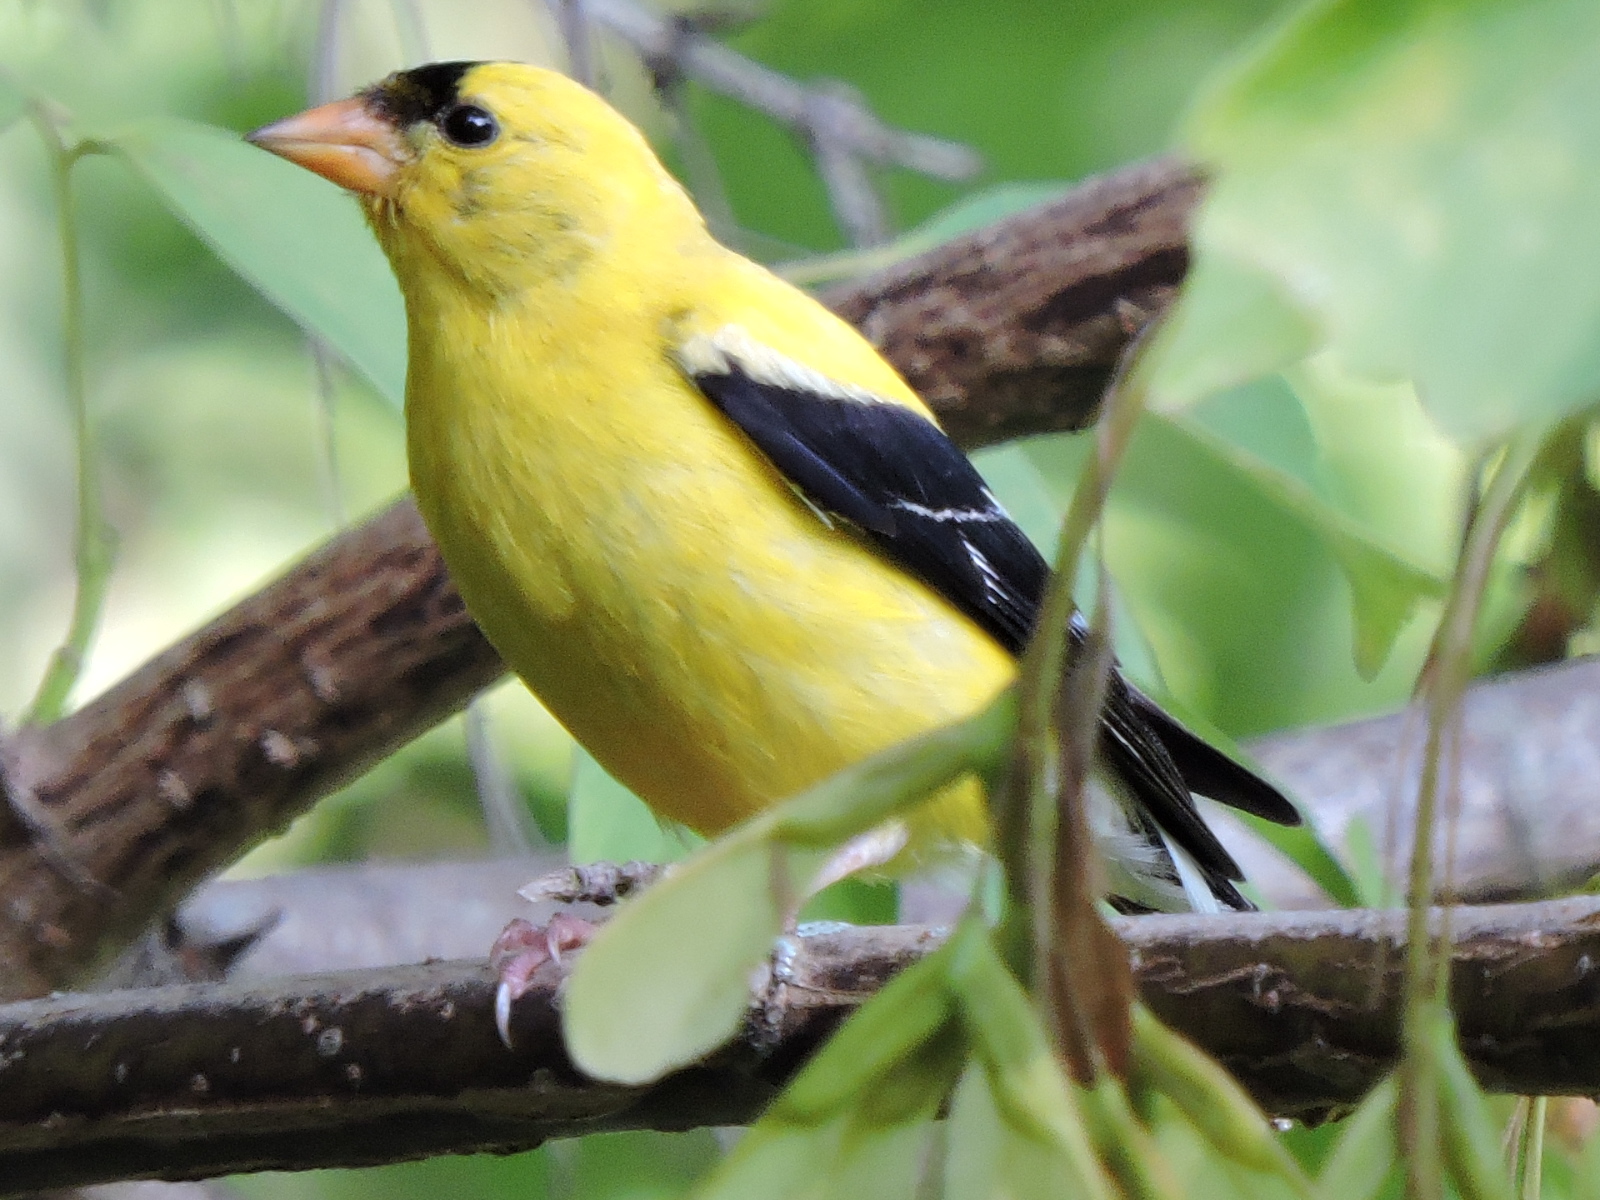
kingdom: Animalia
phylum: Chordata
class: Aves
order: Passeriformes
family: Fringillidae
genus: Spinus
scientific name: Spinus tristis
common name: American goldfinch
